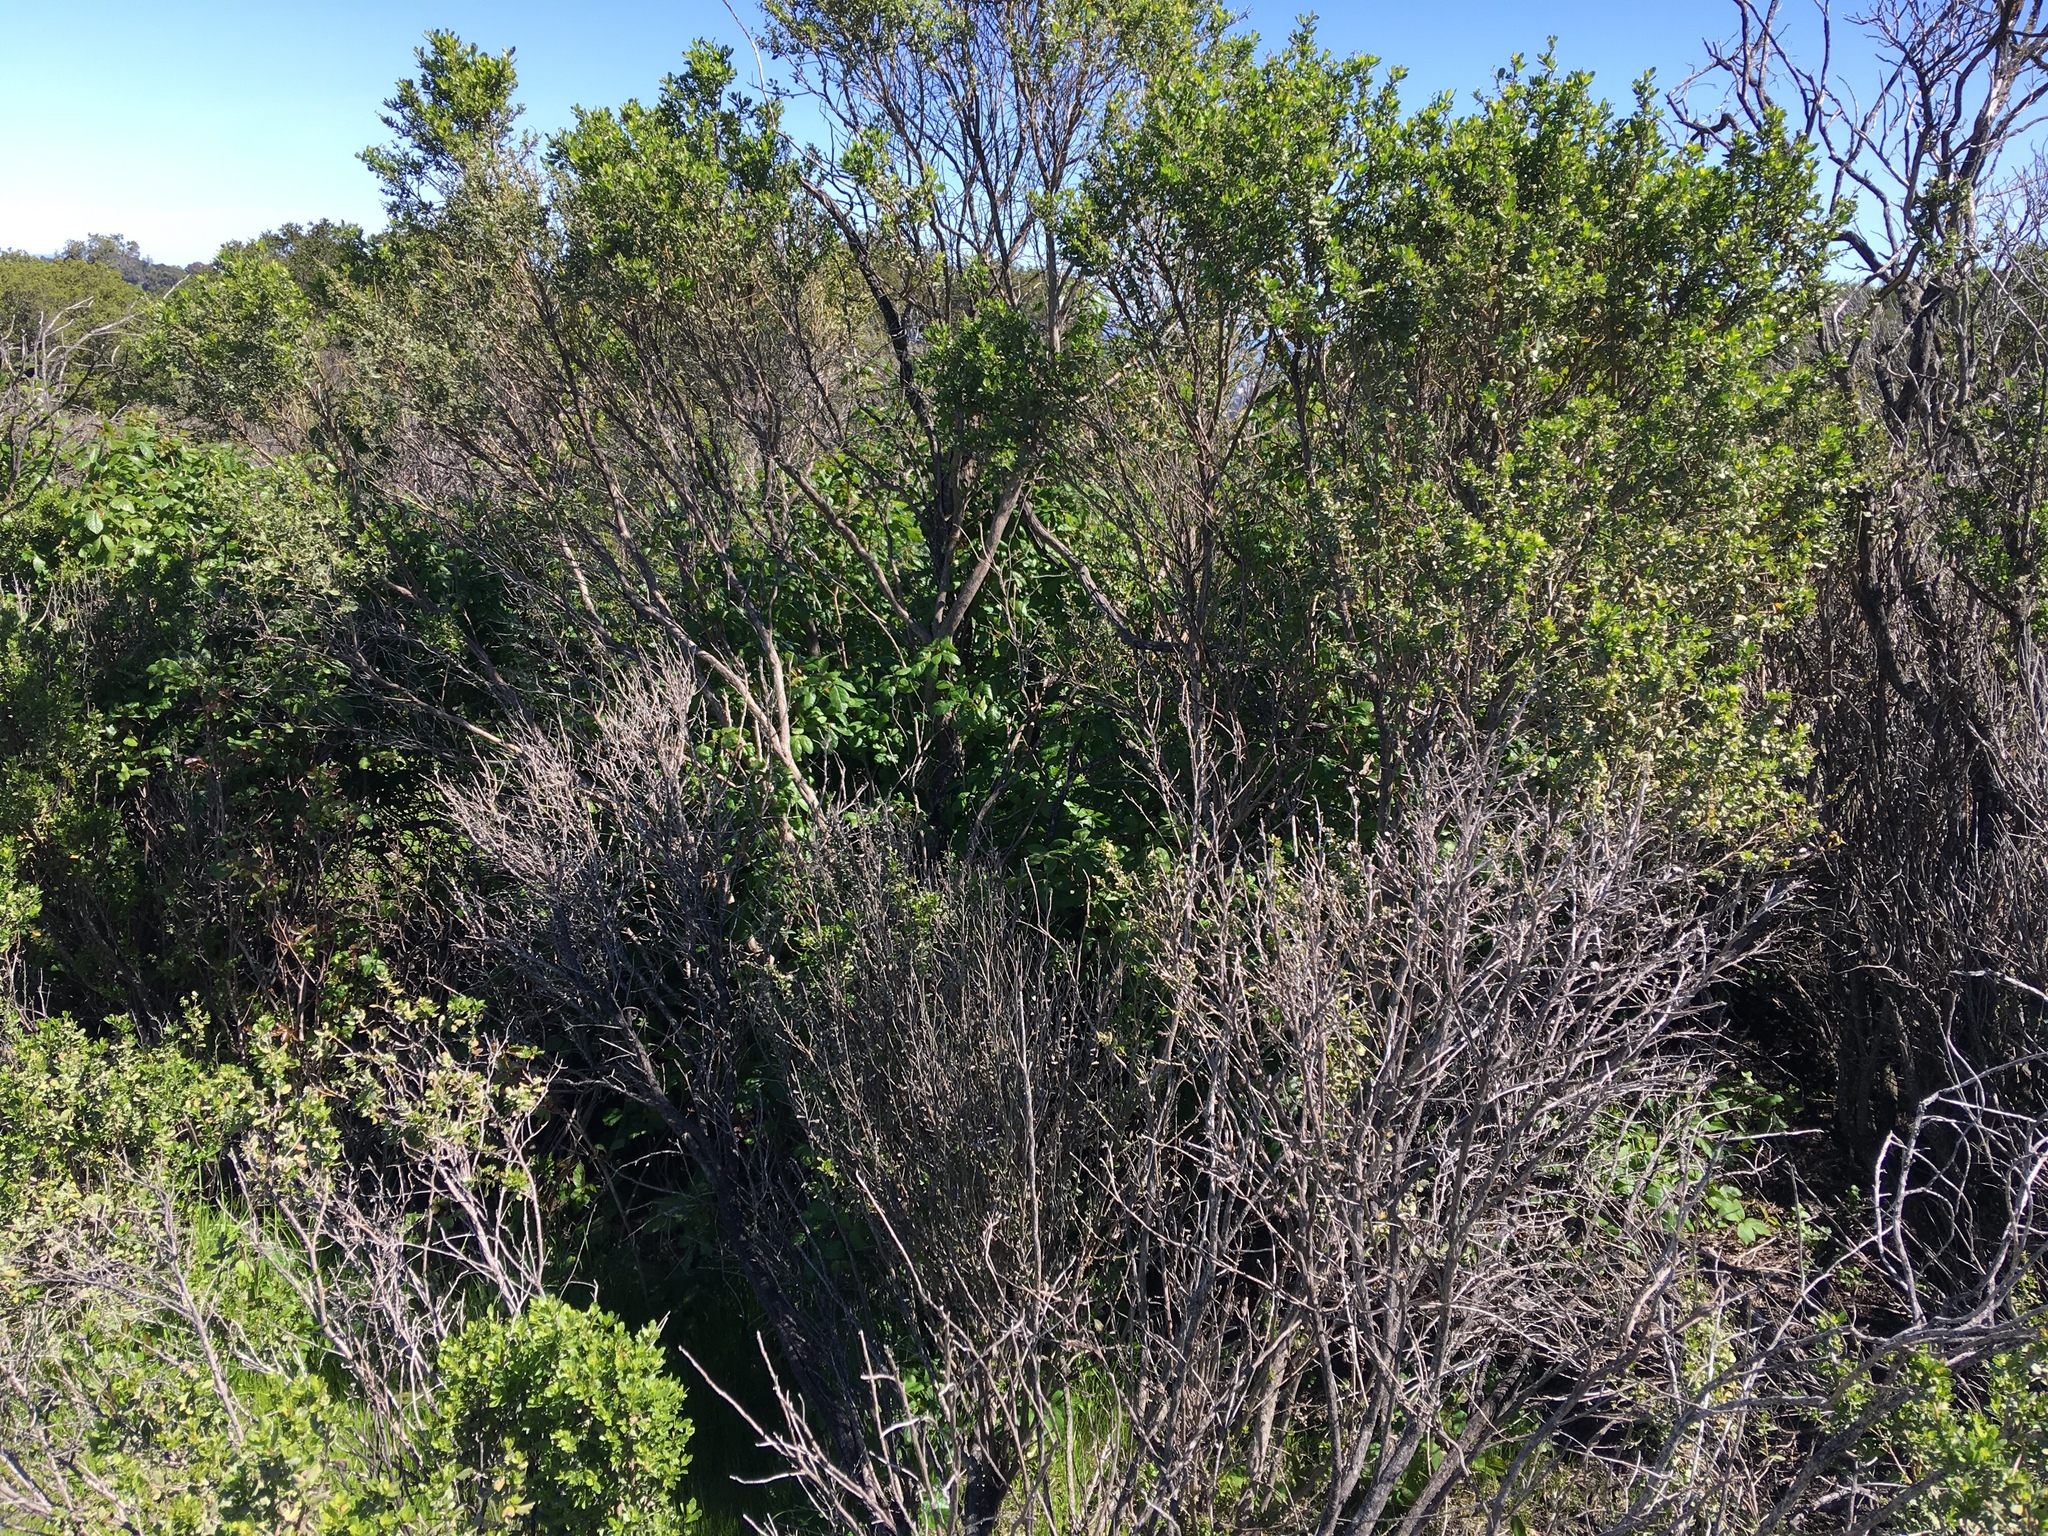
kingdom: Plantae
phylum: Tracheophyta
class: Magnoliopsida
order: Asterales
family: Asteraceae
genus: Baccharis
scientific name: Baccharis pilularis
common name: Coyotebrush
